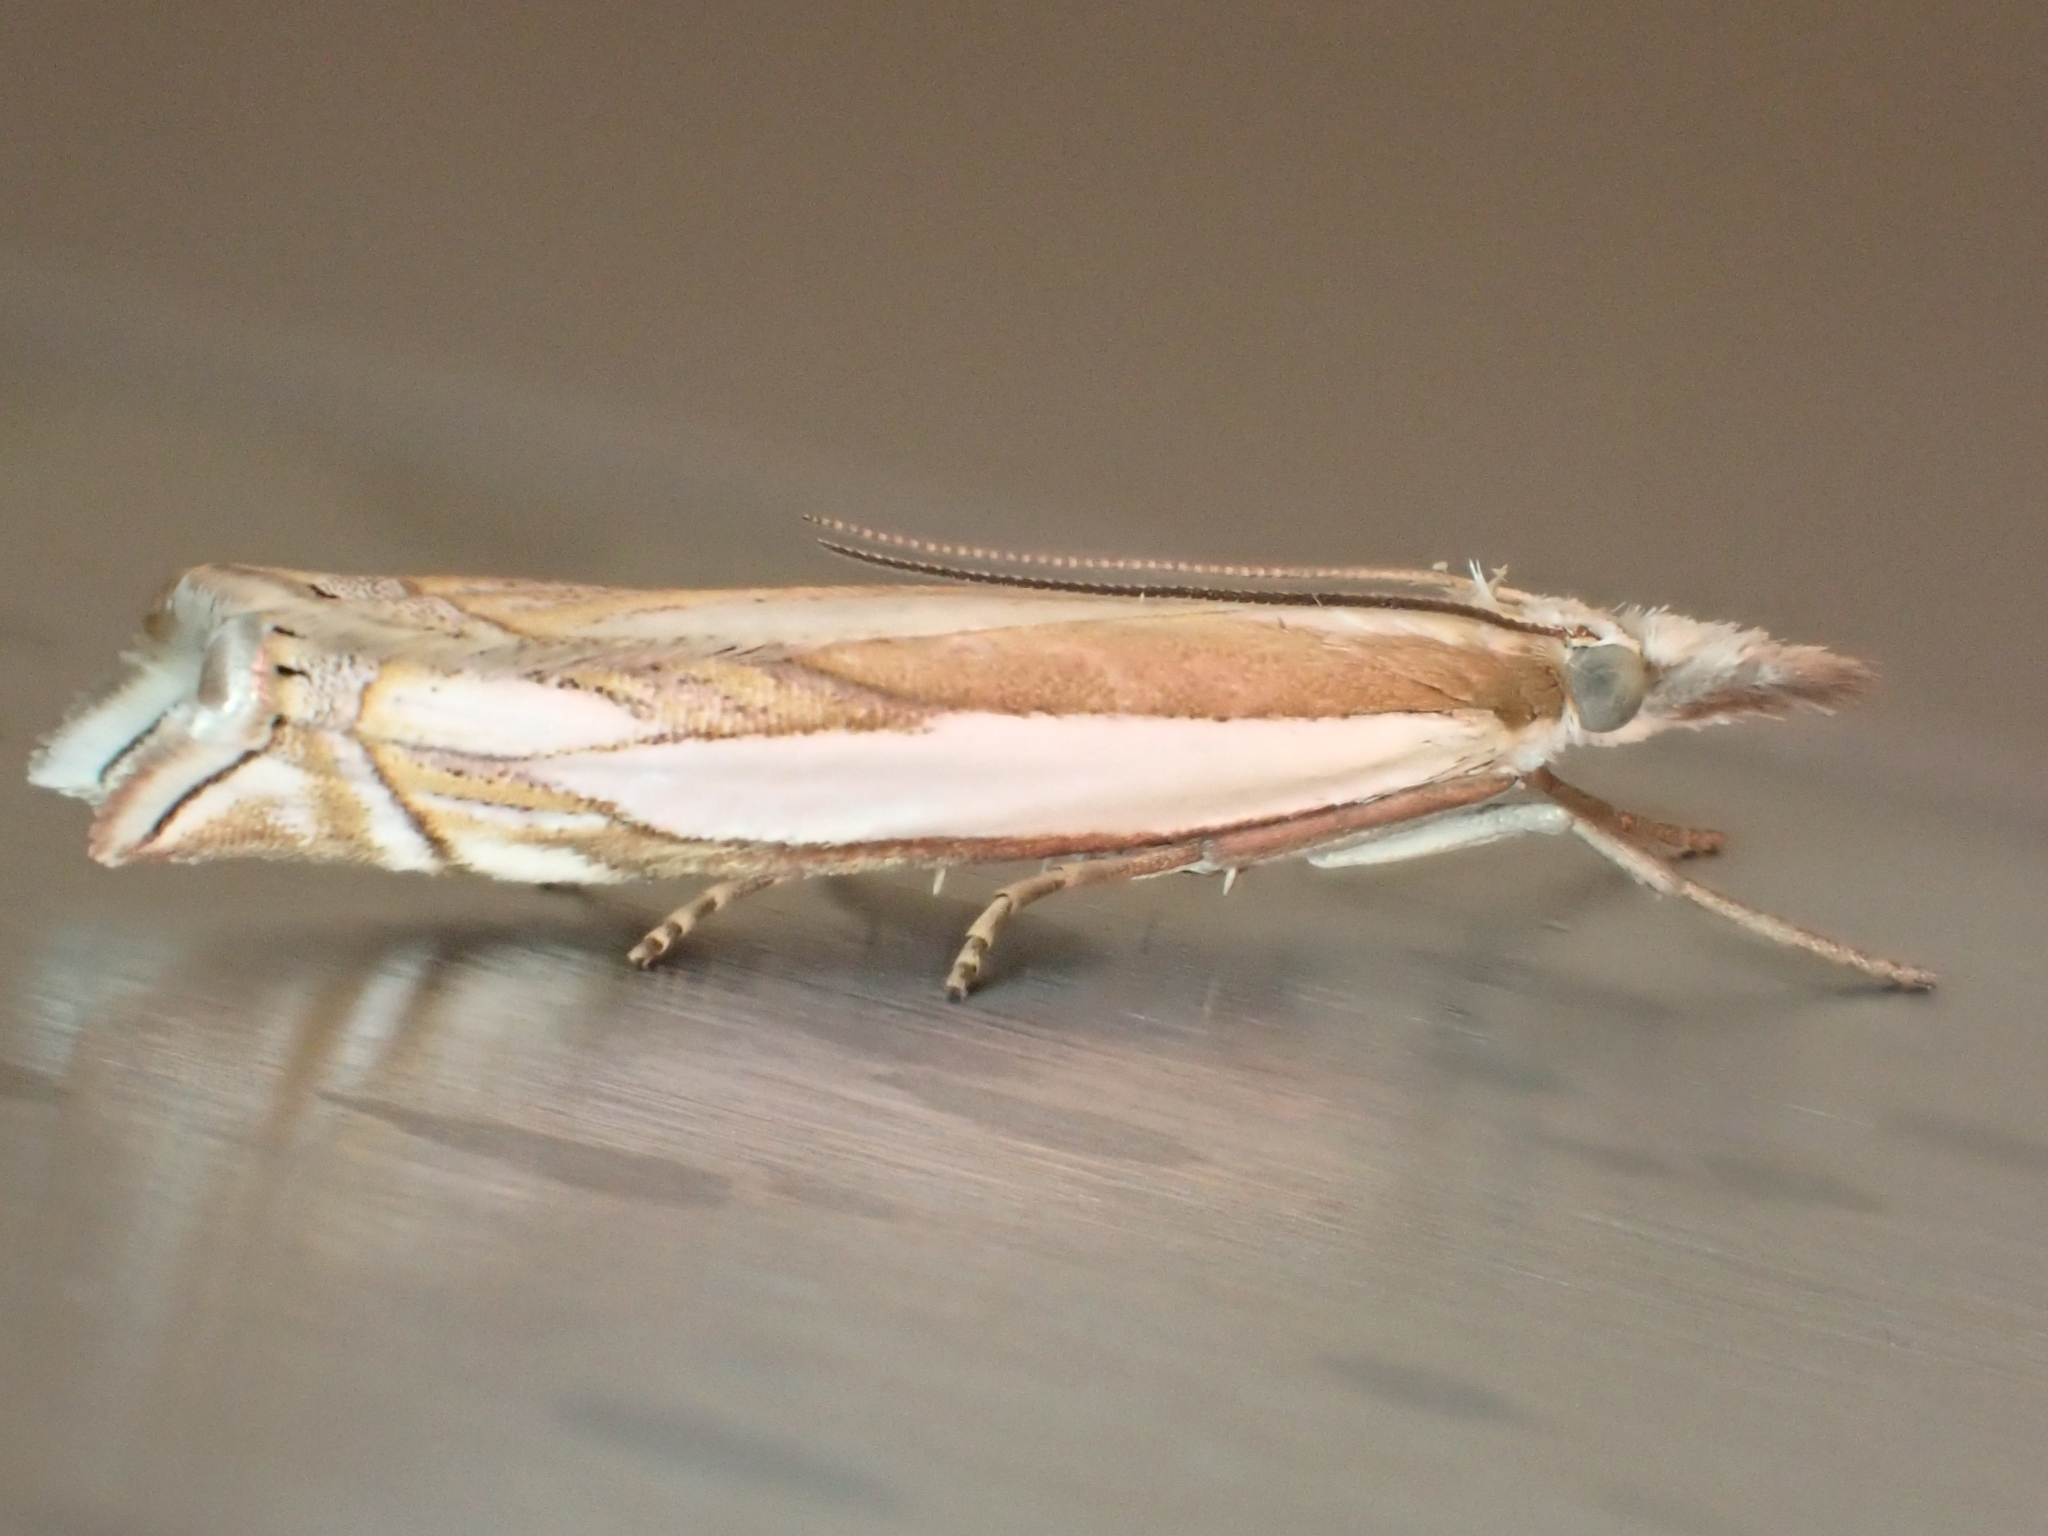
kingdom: Animalia
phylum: Arthropoda
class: Insecta
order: Lepidoptera
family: Crambidae
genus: Crambus
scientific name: Crambus pascuella
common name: Inlaid grass-veneer
